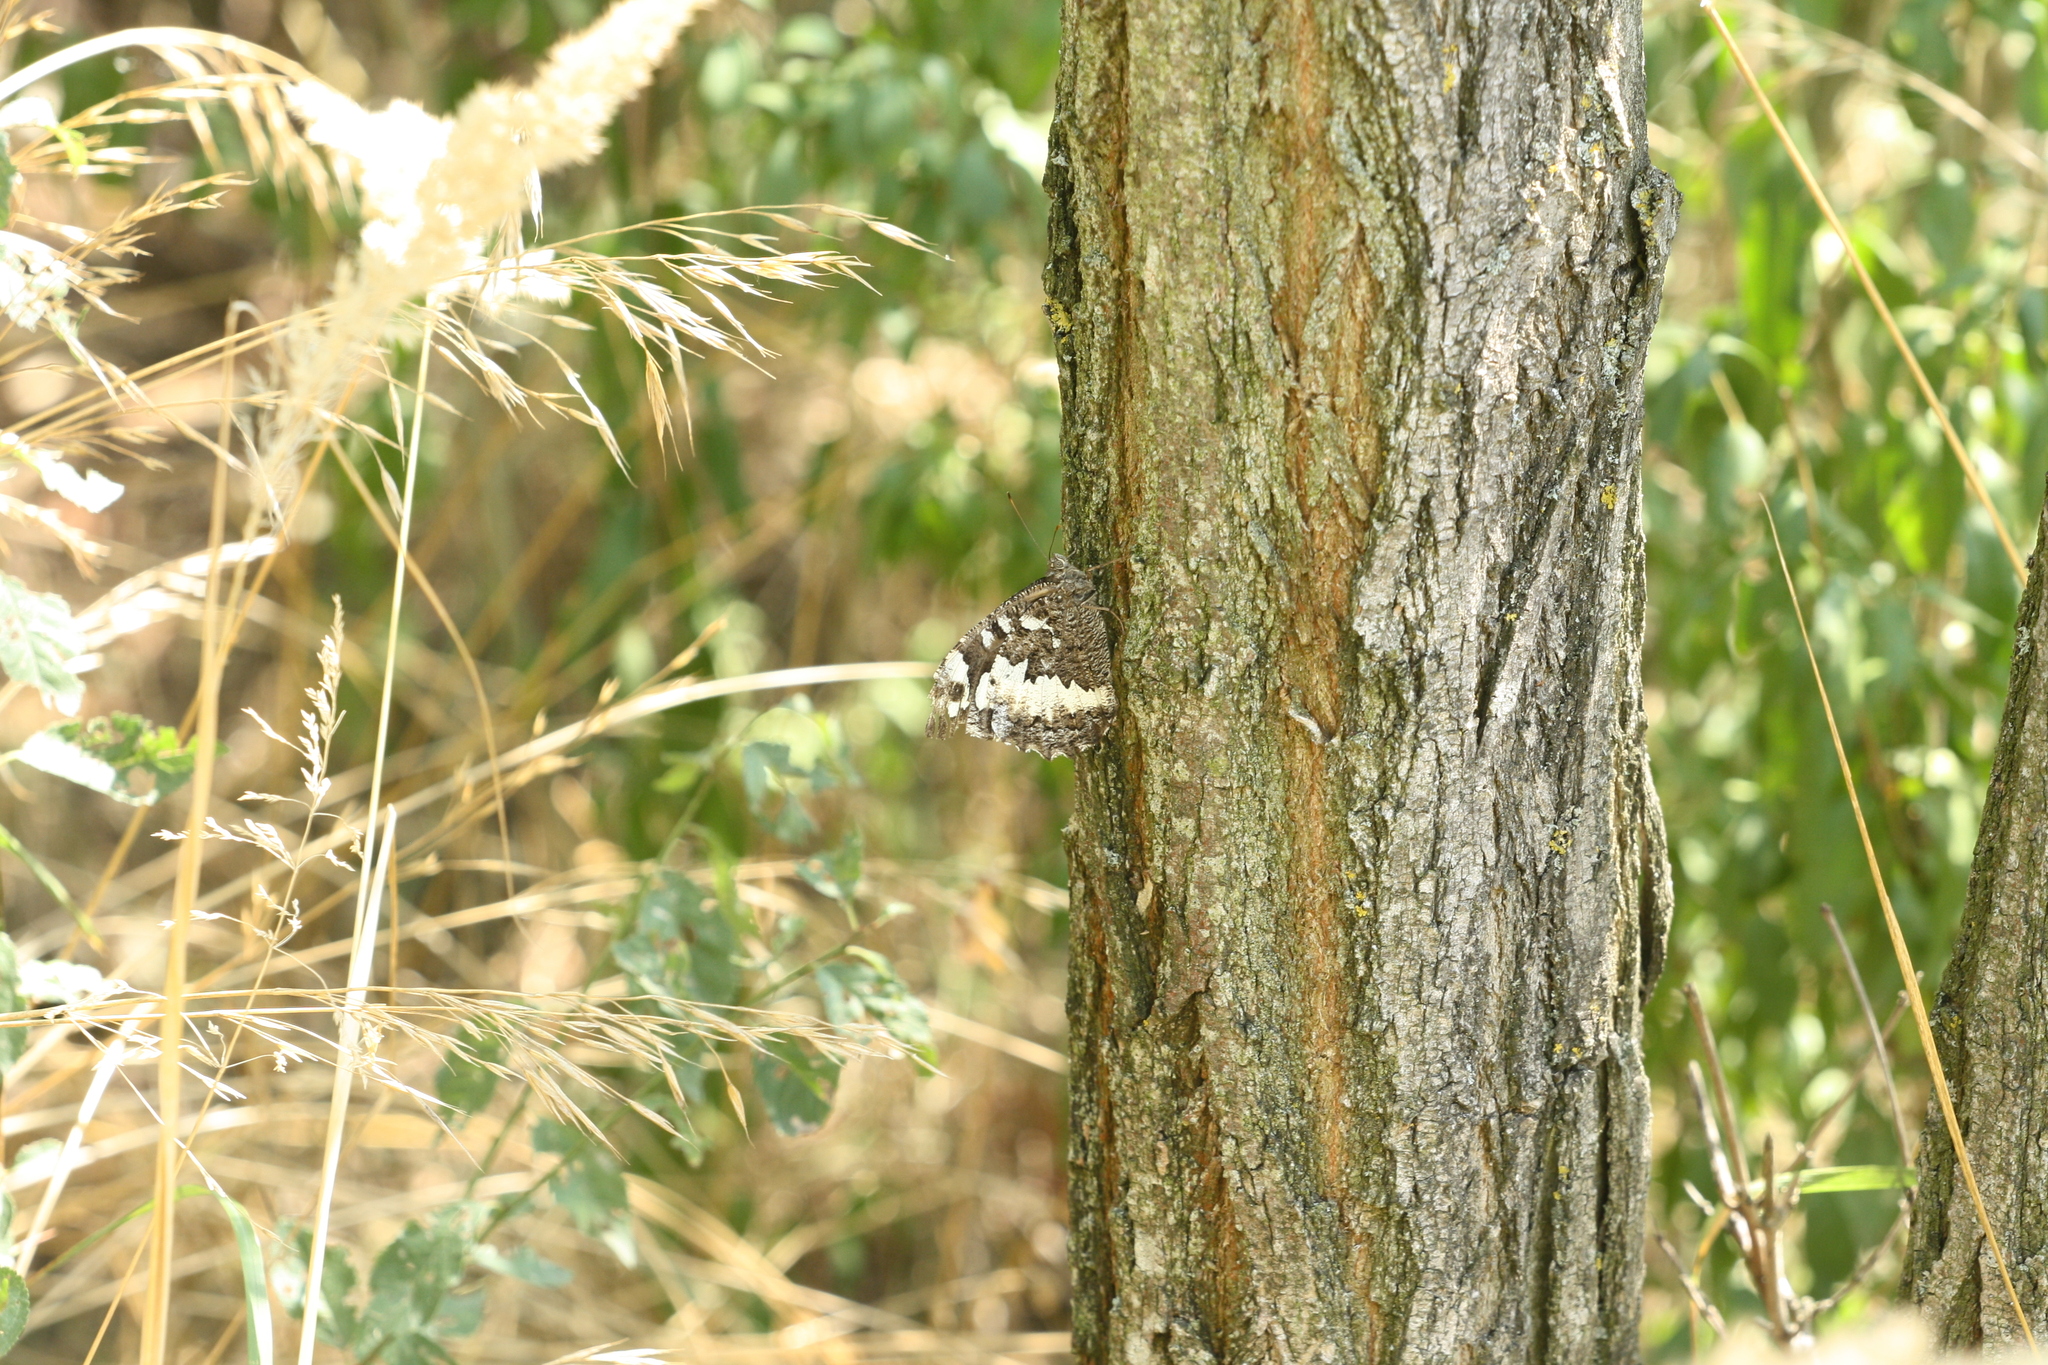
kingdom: Animalia
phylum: Arthropoda
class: Insecta
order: Lepidoptera
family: Lycaenidae
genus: Loweia
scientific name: Loweia tityrus
